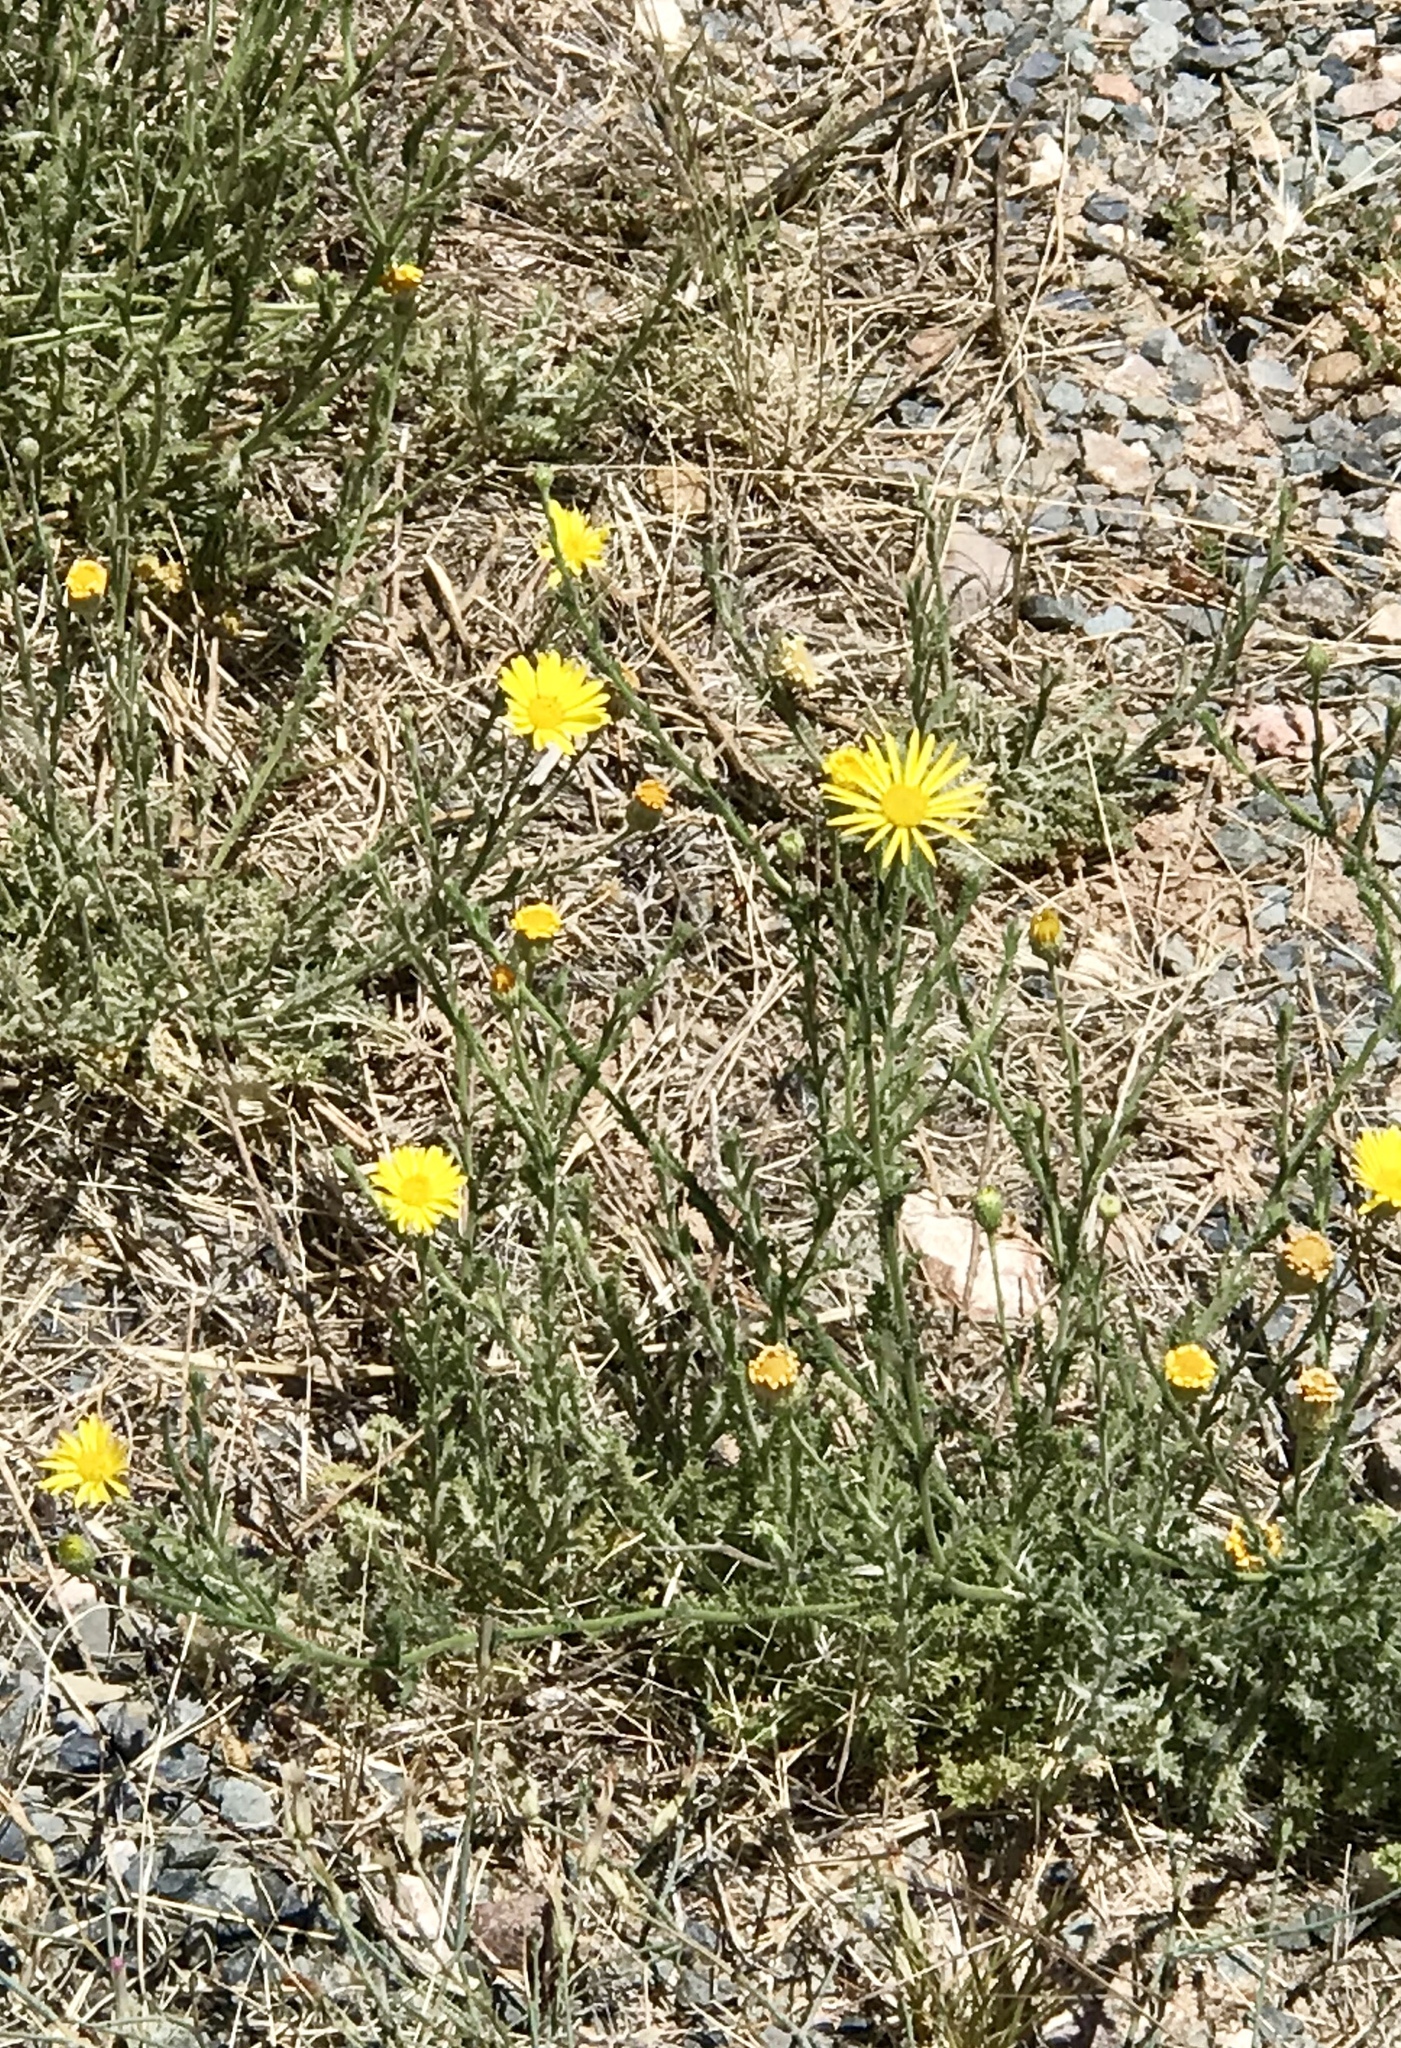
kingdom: Plantae
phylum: Tracheophyta
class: Magnoliopsida
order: Asterales
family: Asteraceae
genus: Xanthisma
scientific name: Xanthisma spinulosum
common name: Spiny goldenweed
